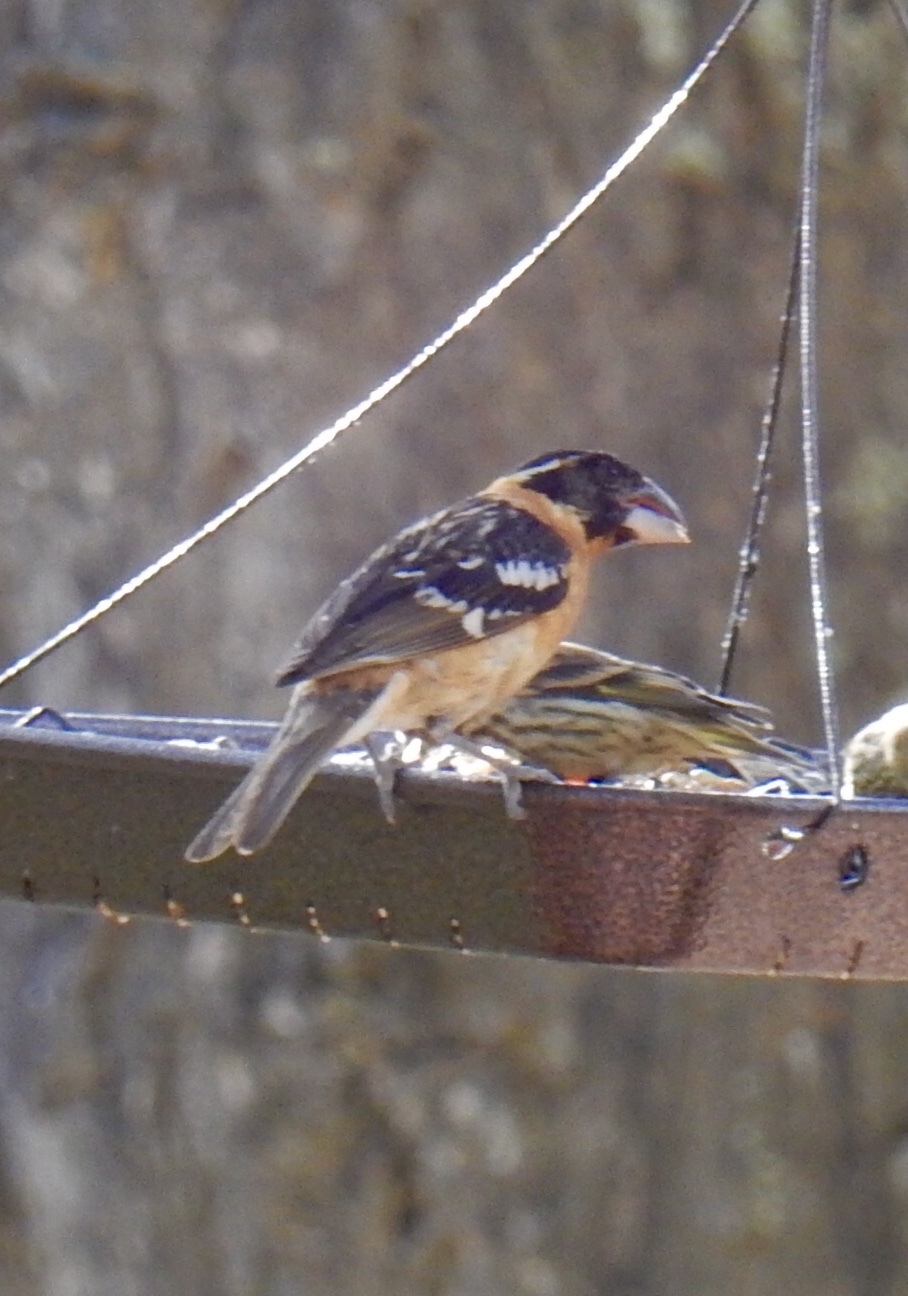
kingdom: Animalia
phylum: Chordata
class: Aves
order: Passeriformes
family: Cardinalidae
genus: Pheucticus
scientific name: Pheucticus melanocephalus
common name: Black-headed grosbeak
